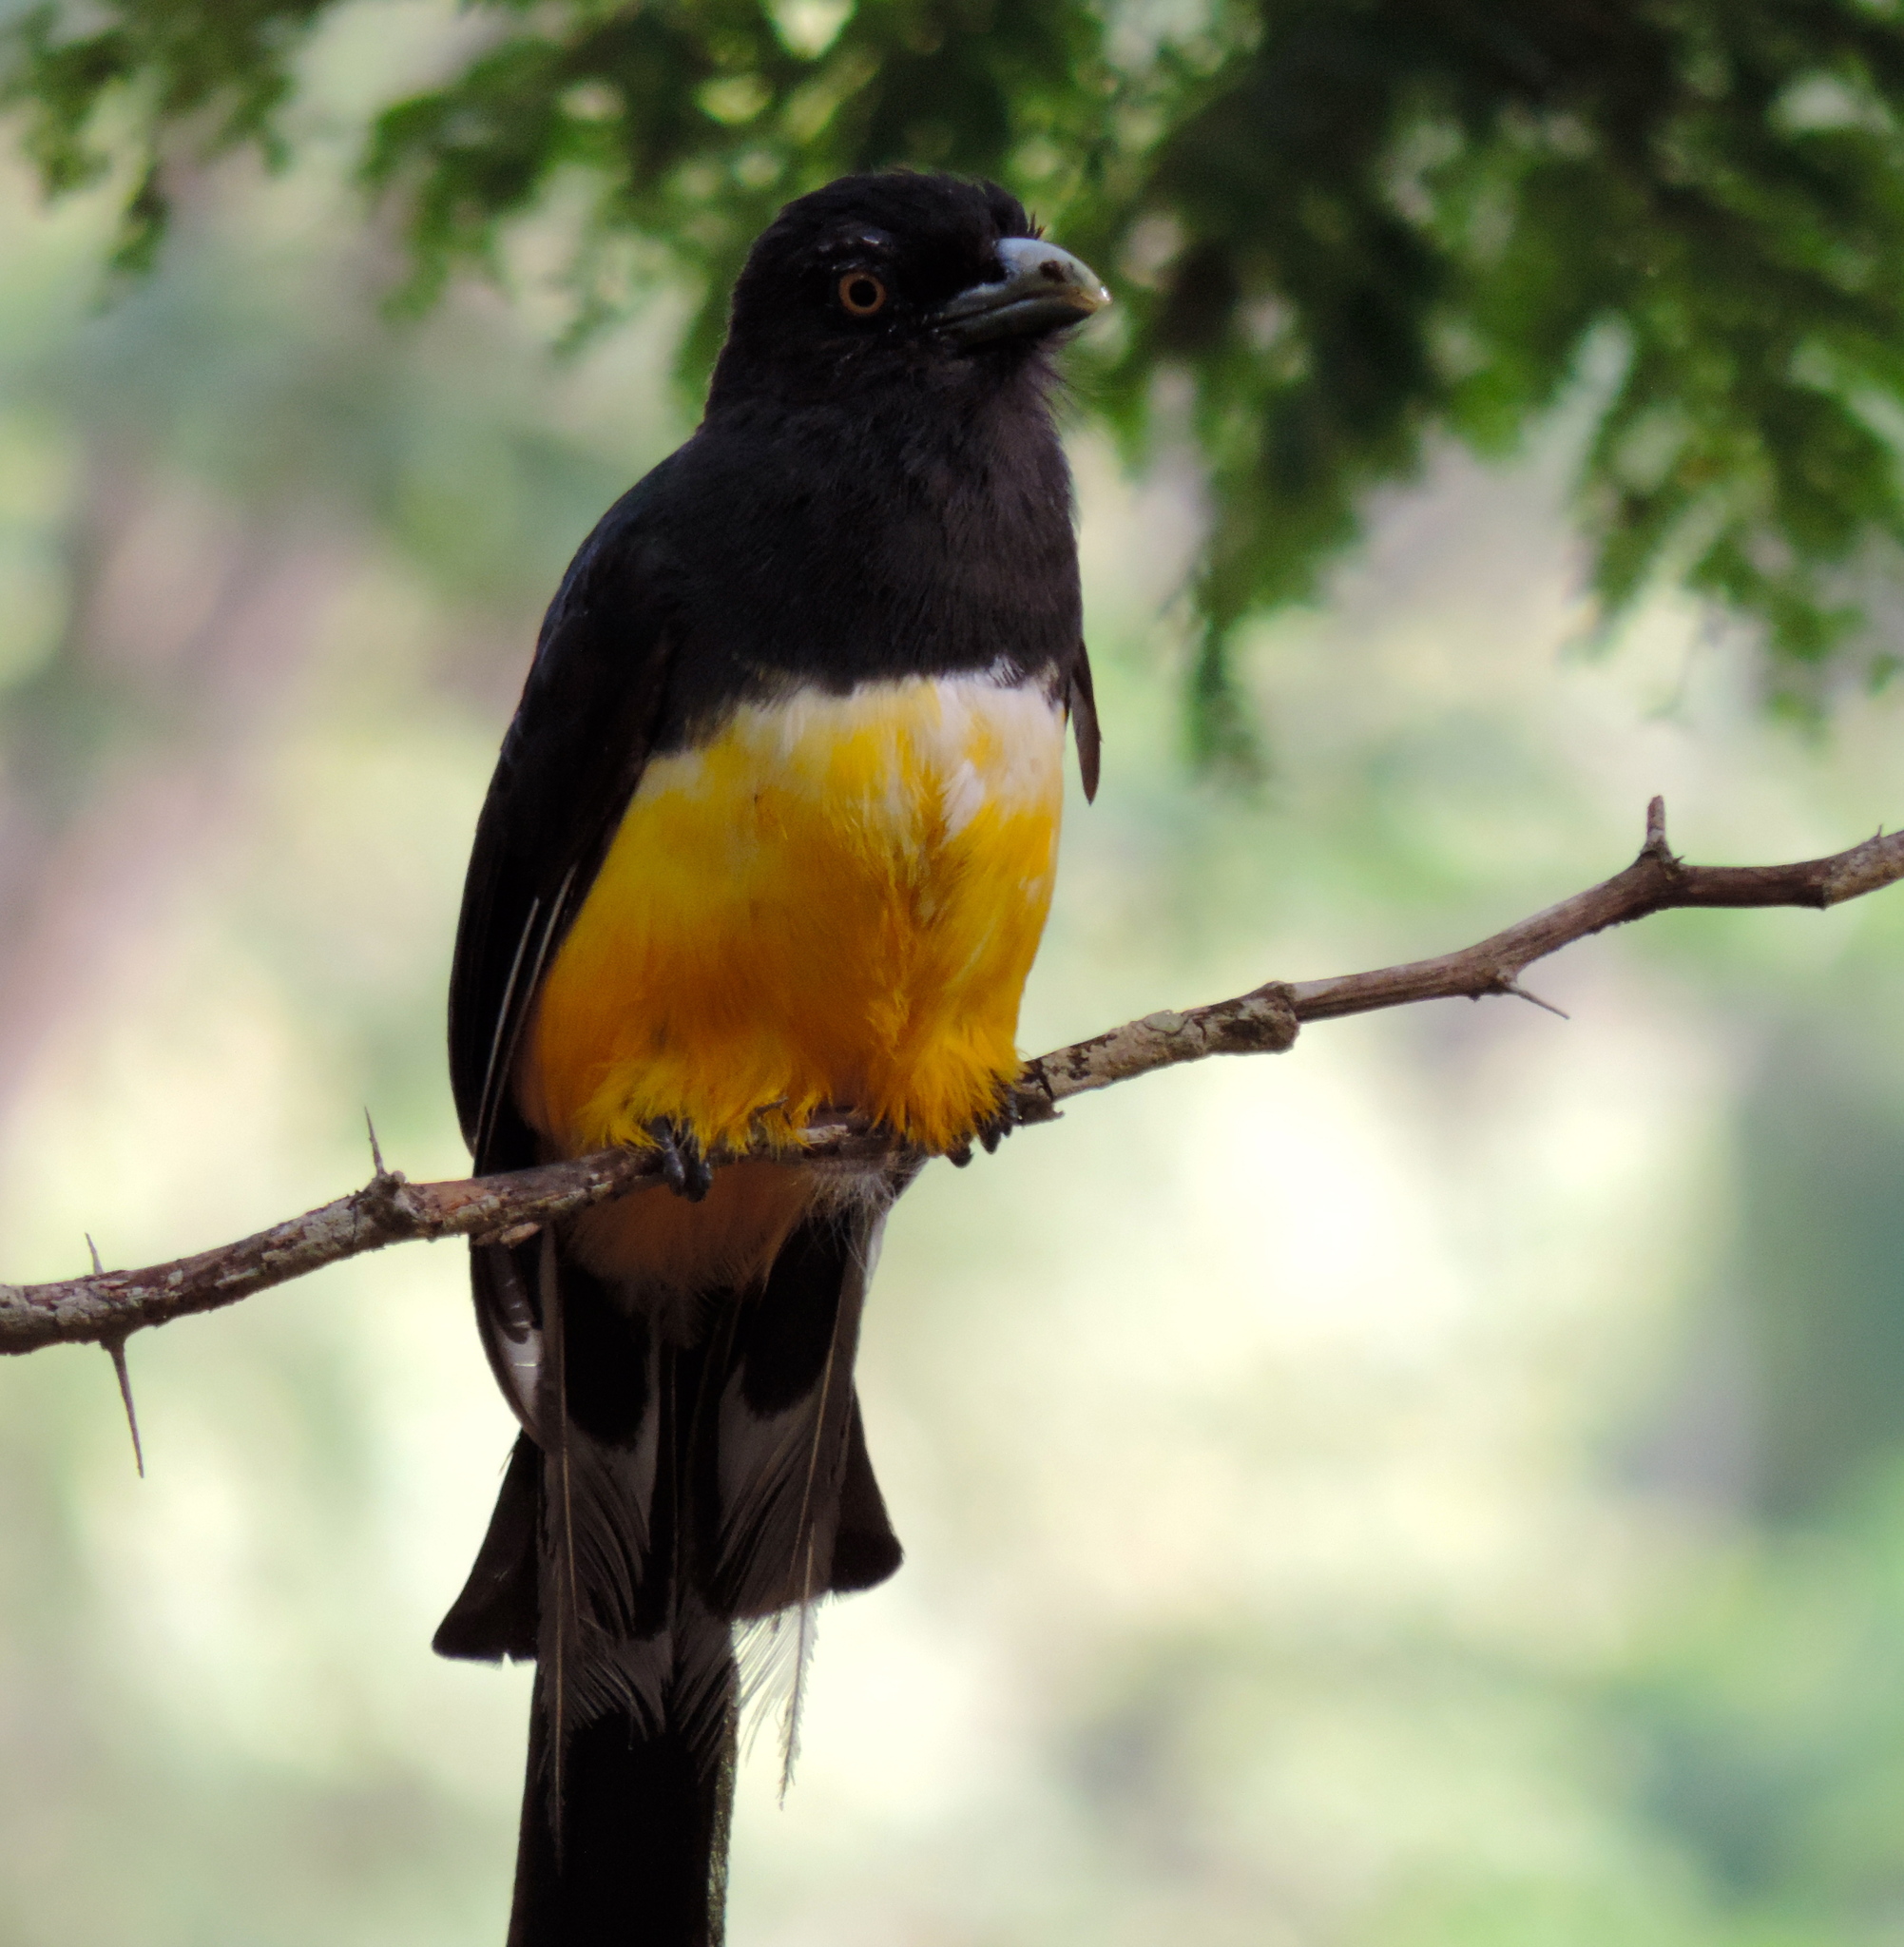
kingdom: Animalia
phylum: Chordata
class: Aves
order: Trogoniformes
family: Trogonidae
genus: Trogon
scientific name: Trogon citreolus
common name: Citreoline trogon
